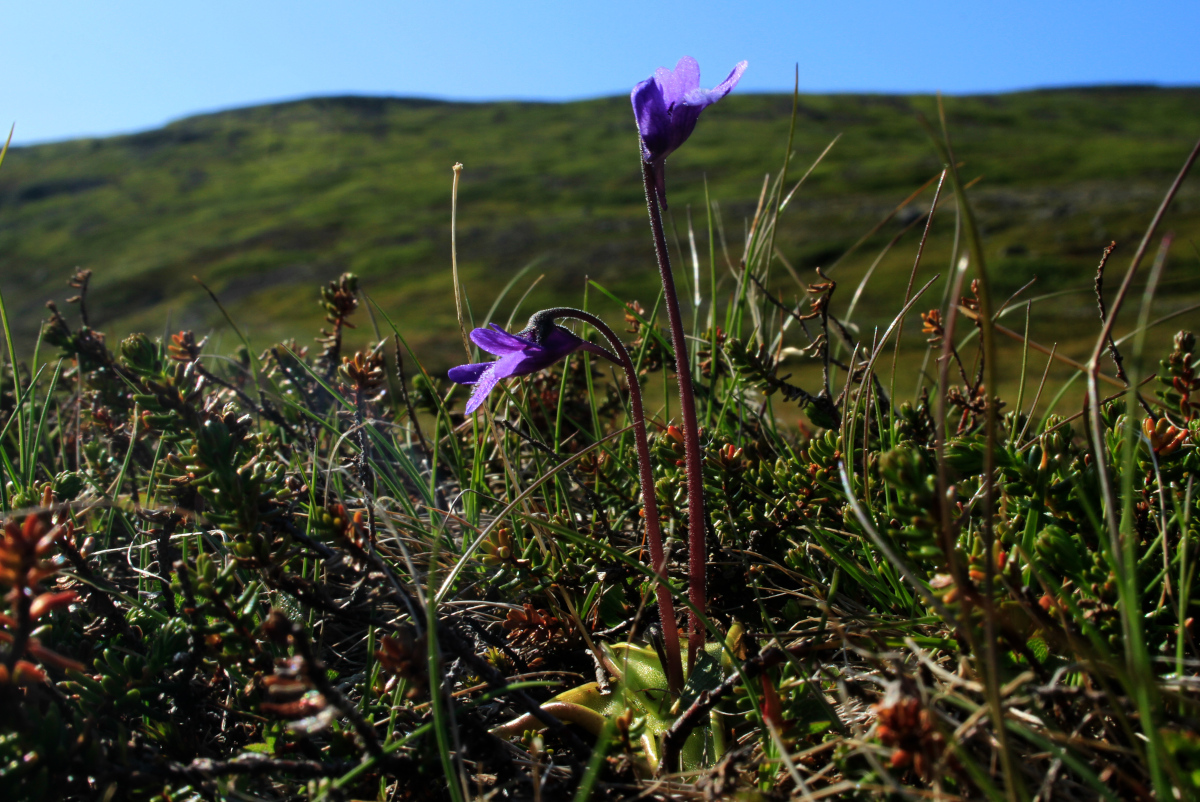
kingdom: Plantae
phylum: Tracheophyta
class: Magnoliopsida
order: Lamiales
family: Lentibulariaceae
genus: Pinguicula
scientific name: Pinguicula vulgaris
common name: Common butterwort
